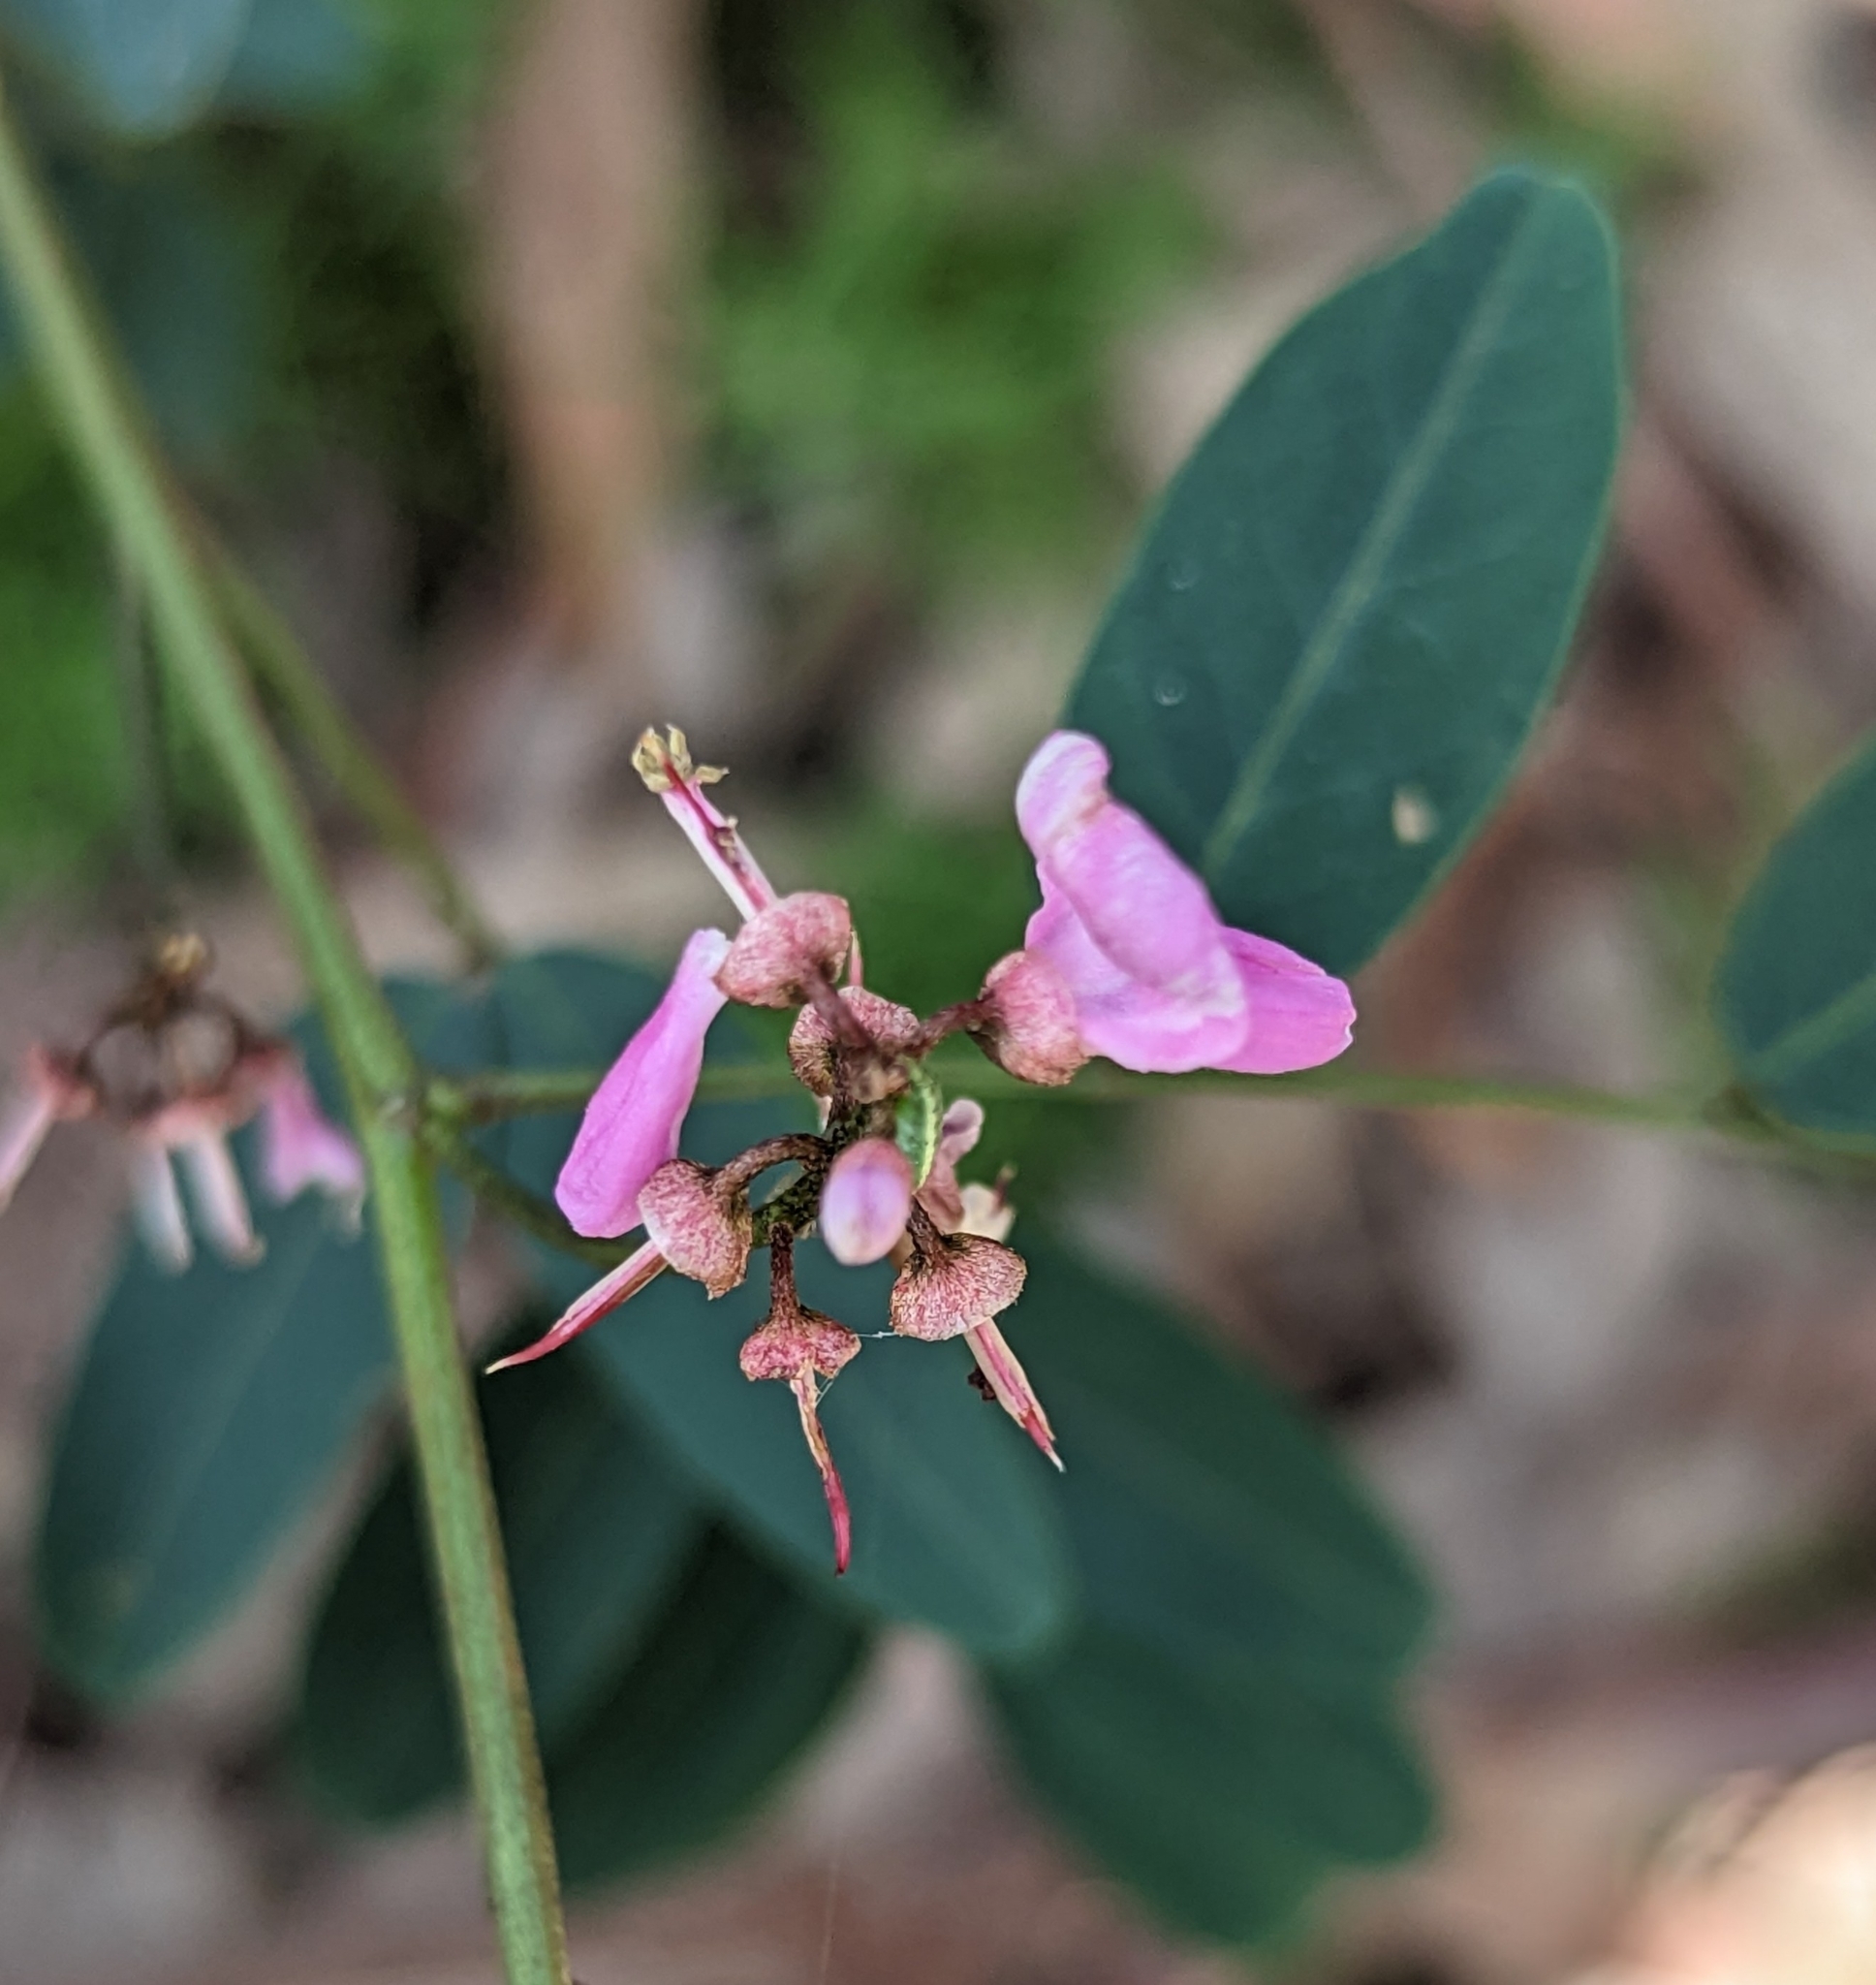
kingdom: Plantae
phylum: Tracheophyta
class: Magnoliopsida
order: Fabales
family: Fabaceae
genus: Indigofera
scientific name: Indigofera australis
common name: Australian indigo
